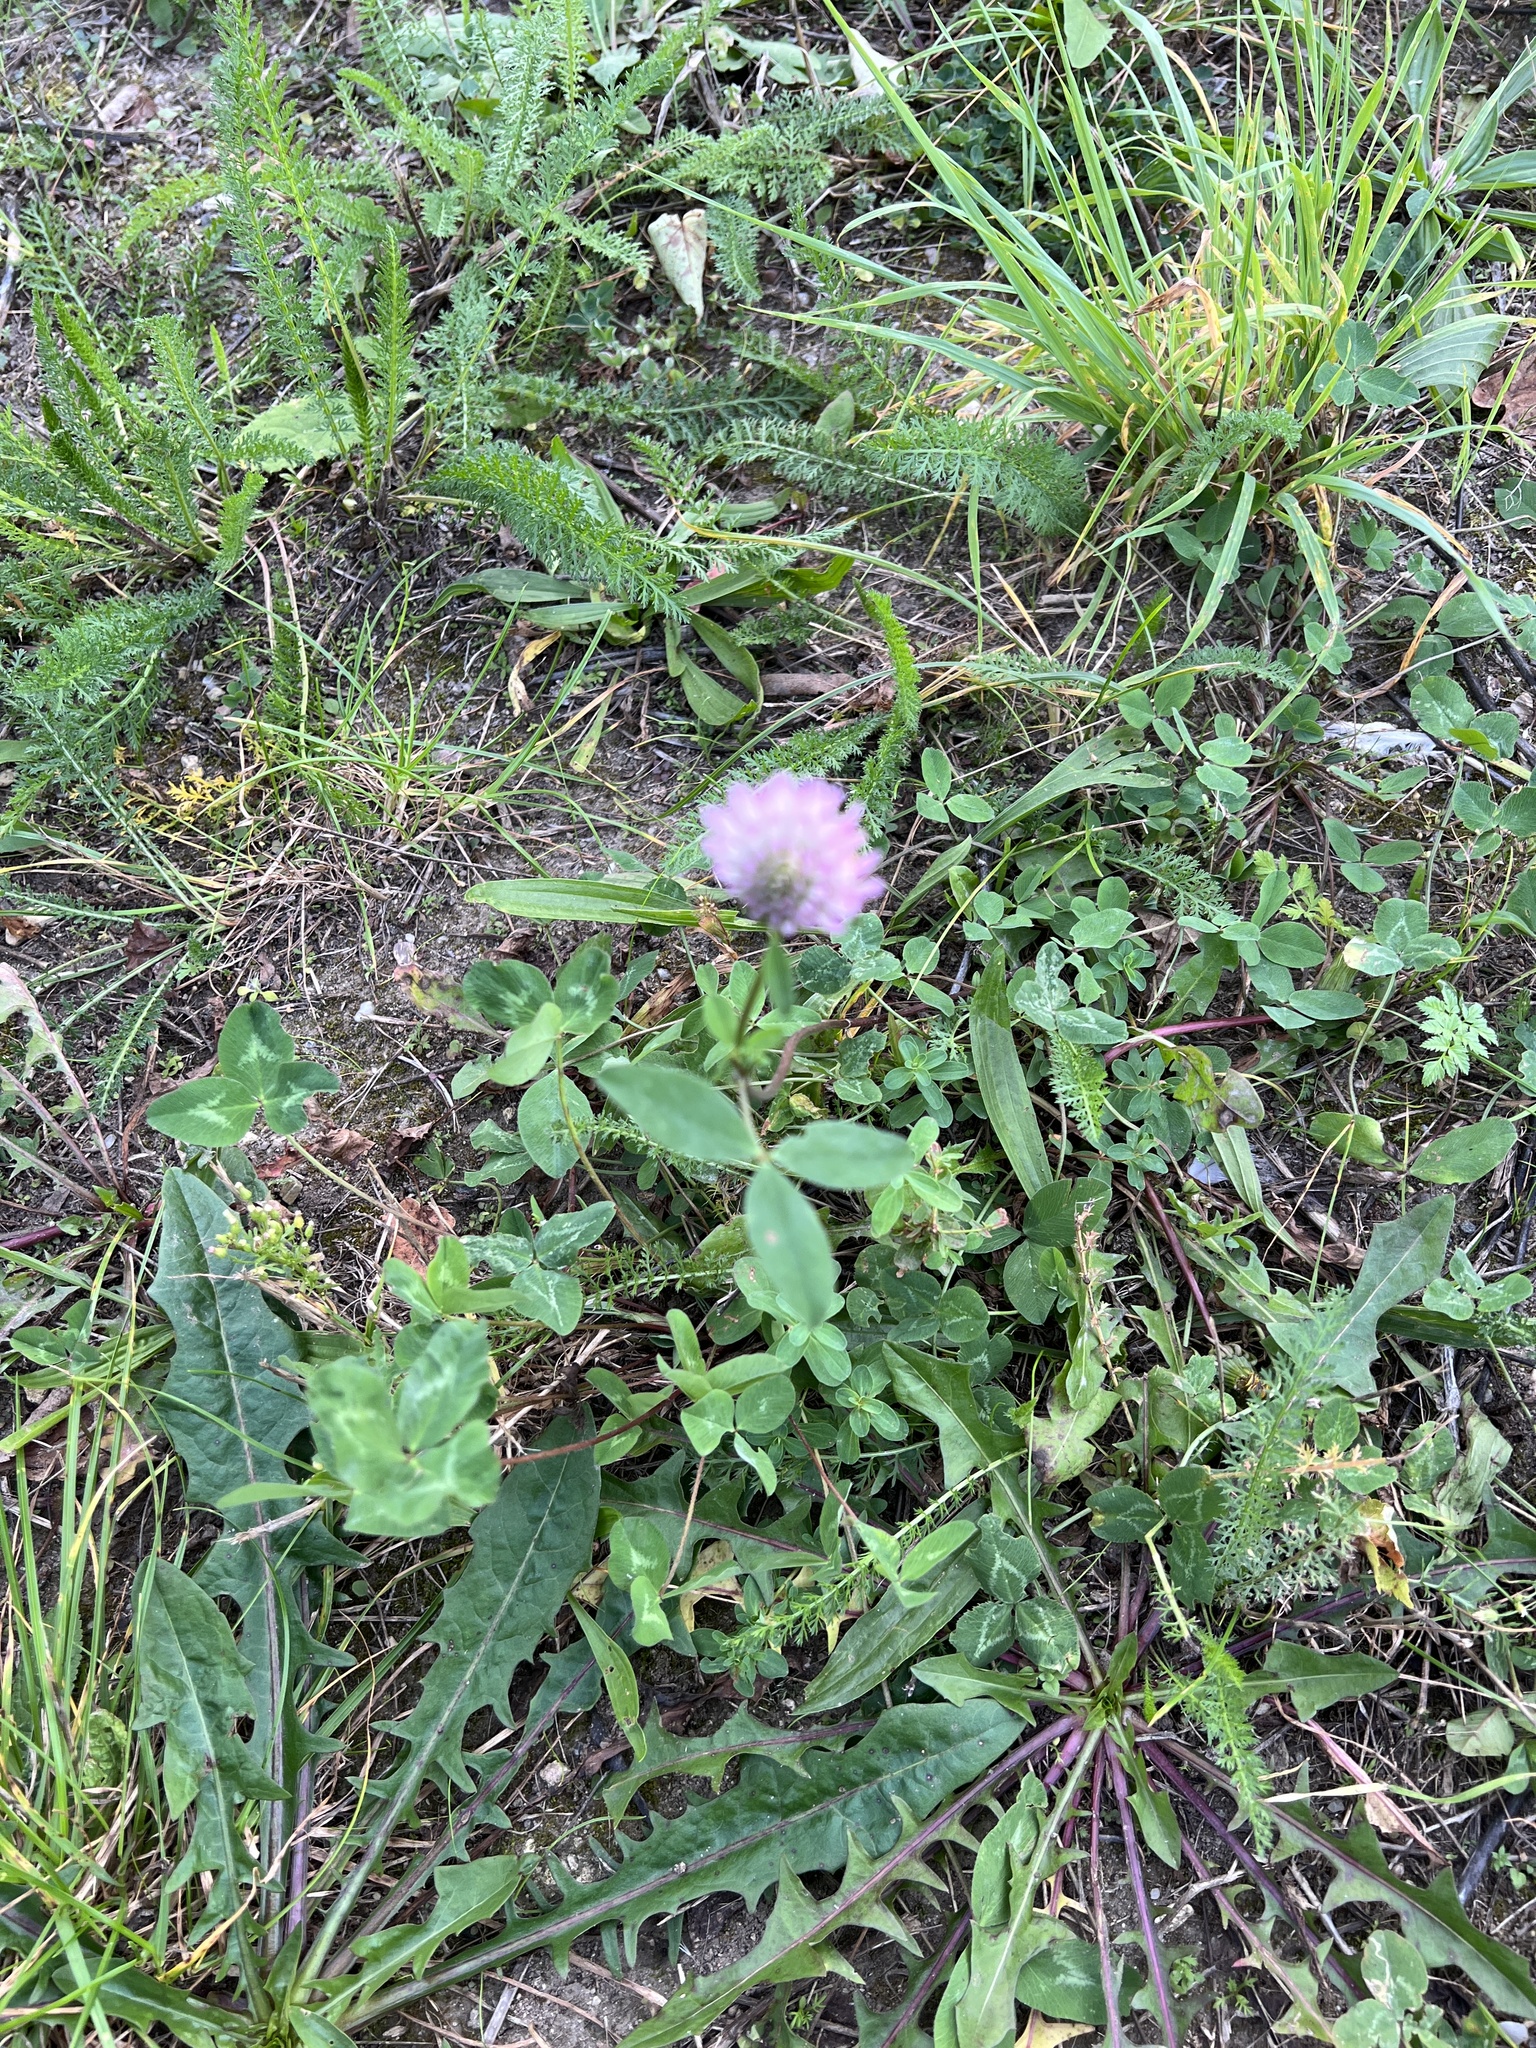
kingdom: Plantae
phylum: Tracheophyta
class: Magnoliopsida
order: Fabales
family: Fabaceae
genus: Trifolium
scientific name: Trifolium pratense
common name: Red clover
